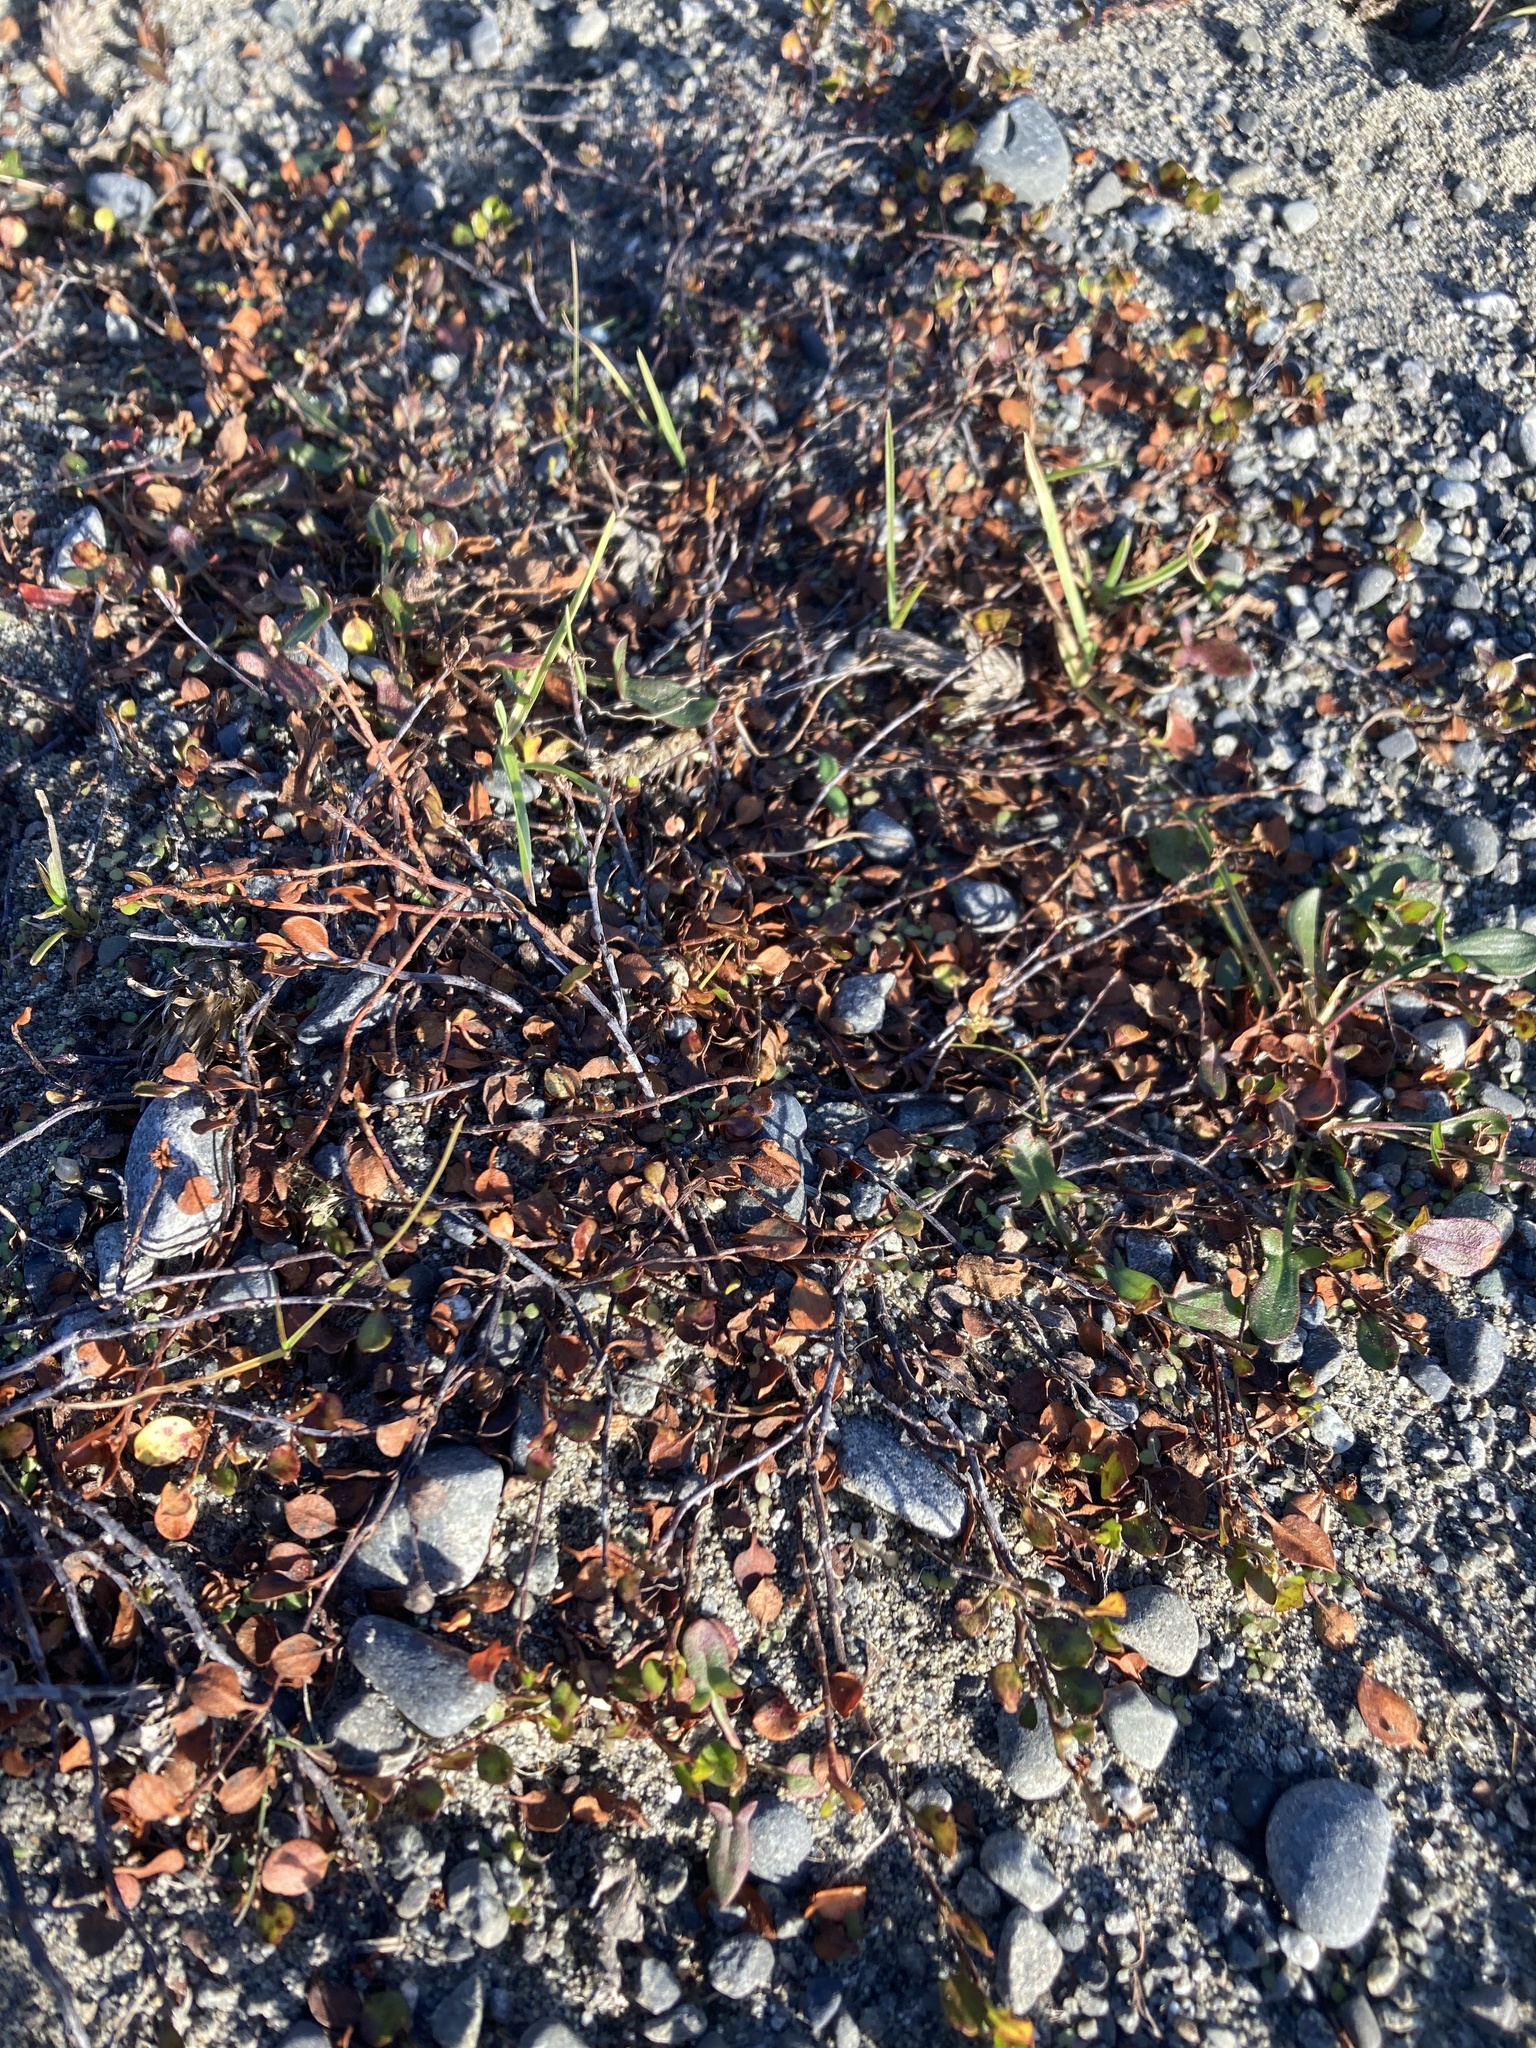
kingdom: Plantae
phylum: Tracheophyta
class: Magnoliopsida
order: Caryophyllales
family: Polygonaceae
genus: Muehlenbeckia
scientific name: Muehlenbeckia axillaris
